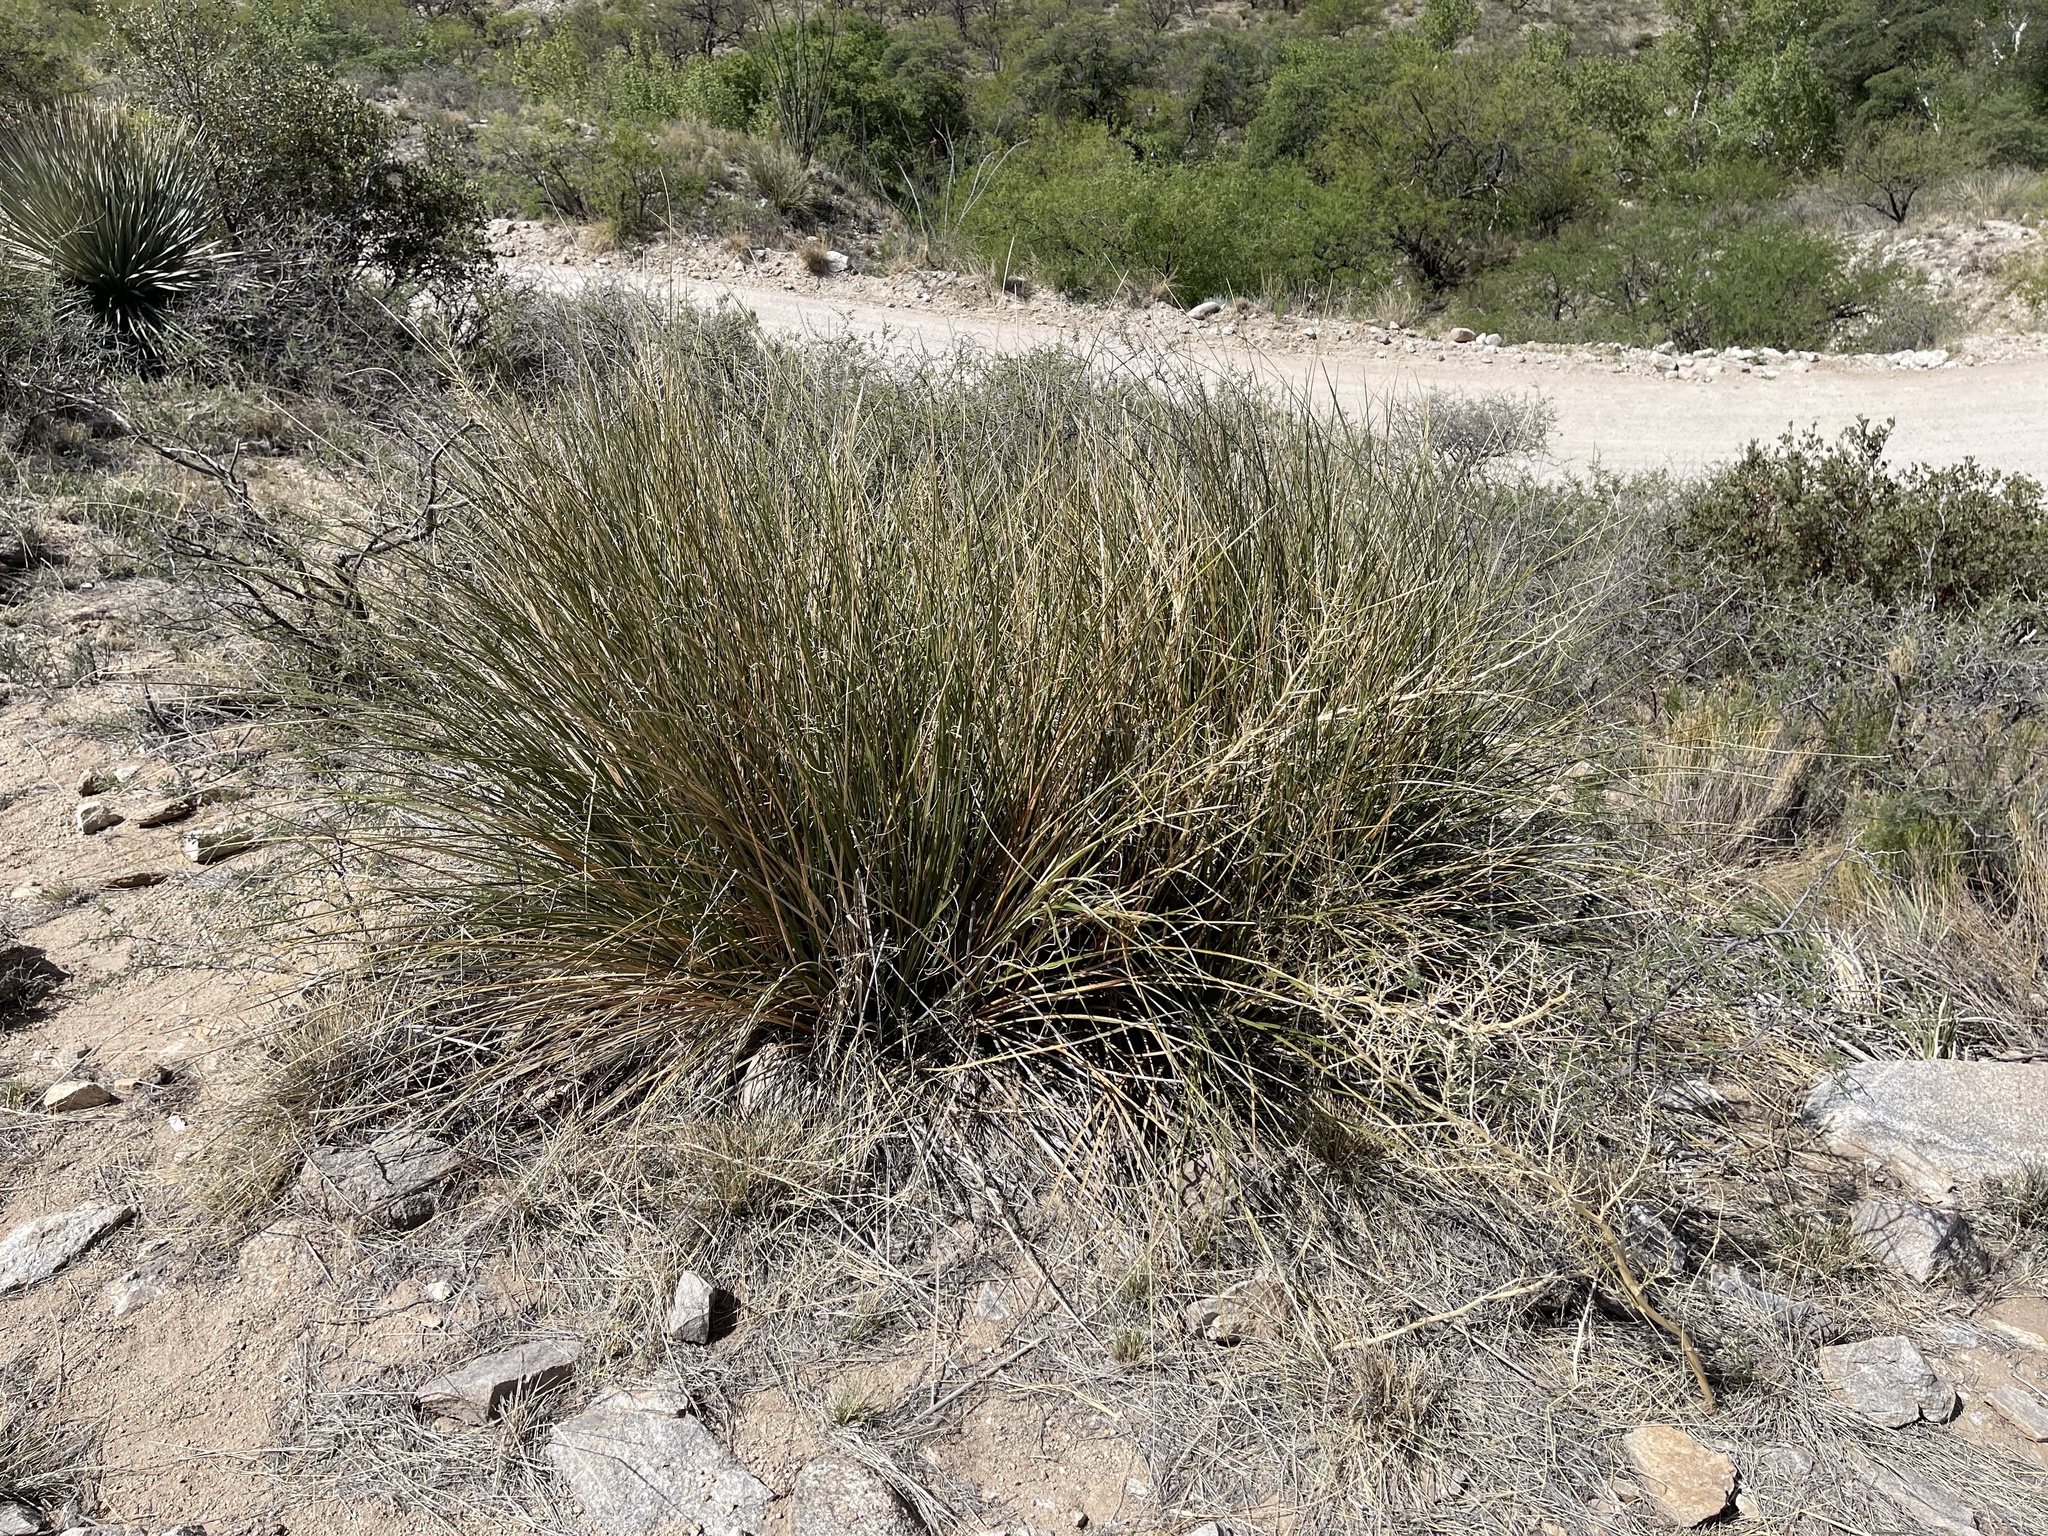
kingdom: Plantae
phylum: Tracheophyta
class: Liliopsida
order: Asparagales
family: Asparagaceae
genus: Nolina
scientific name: Nolina microcarpa
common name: Bear-grass
